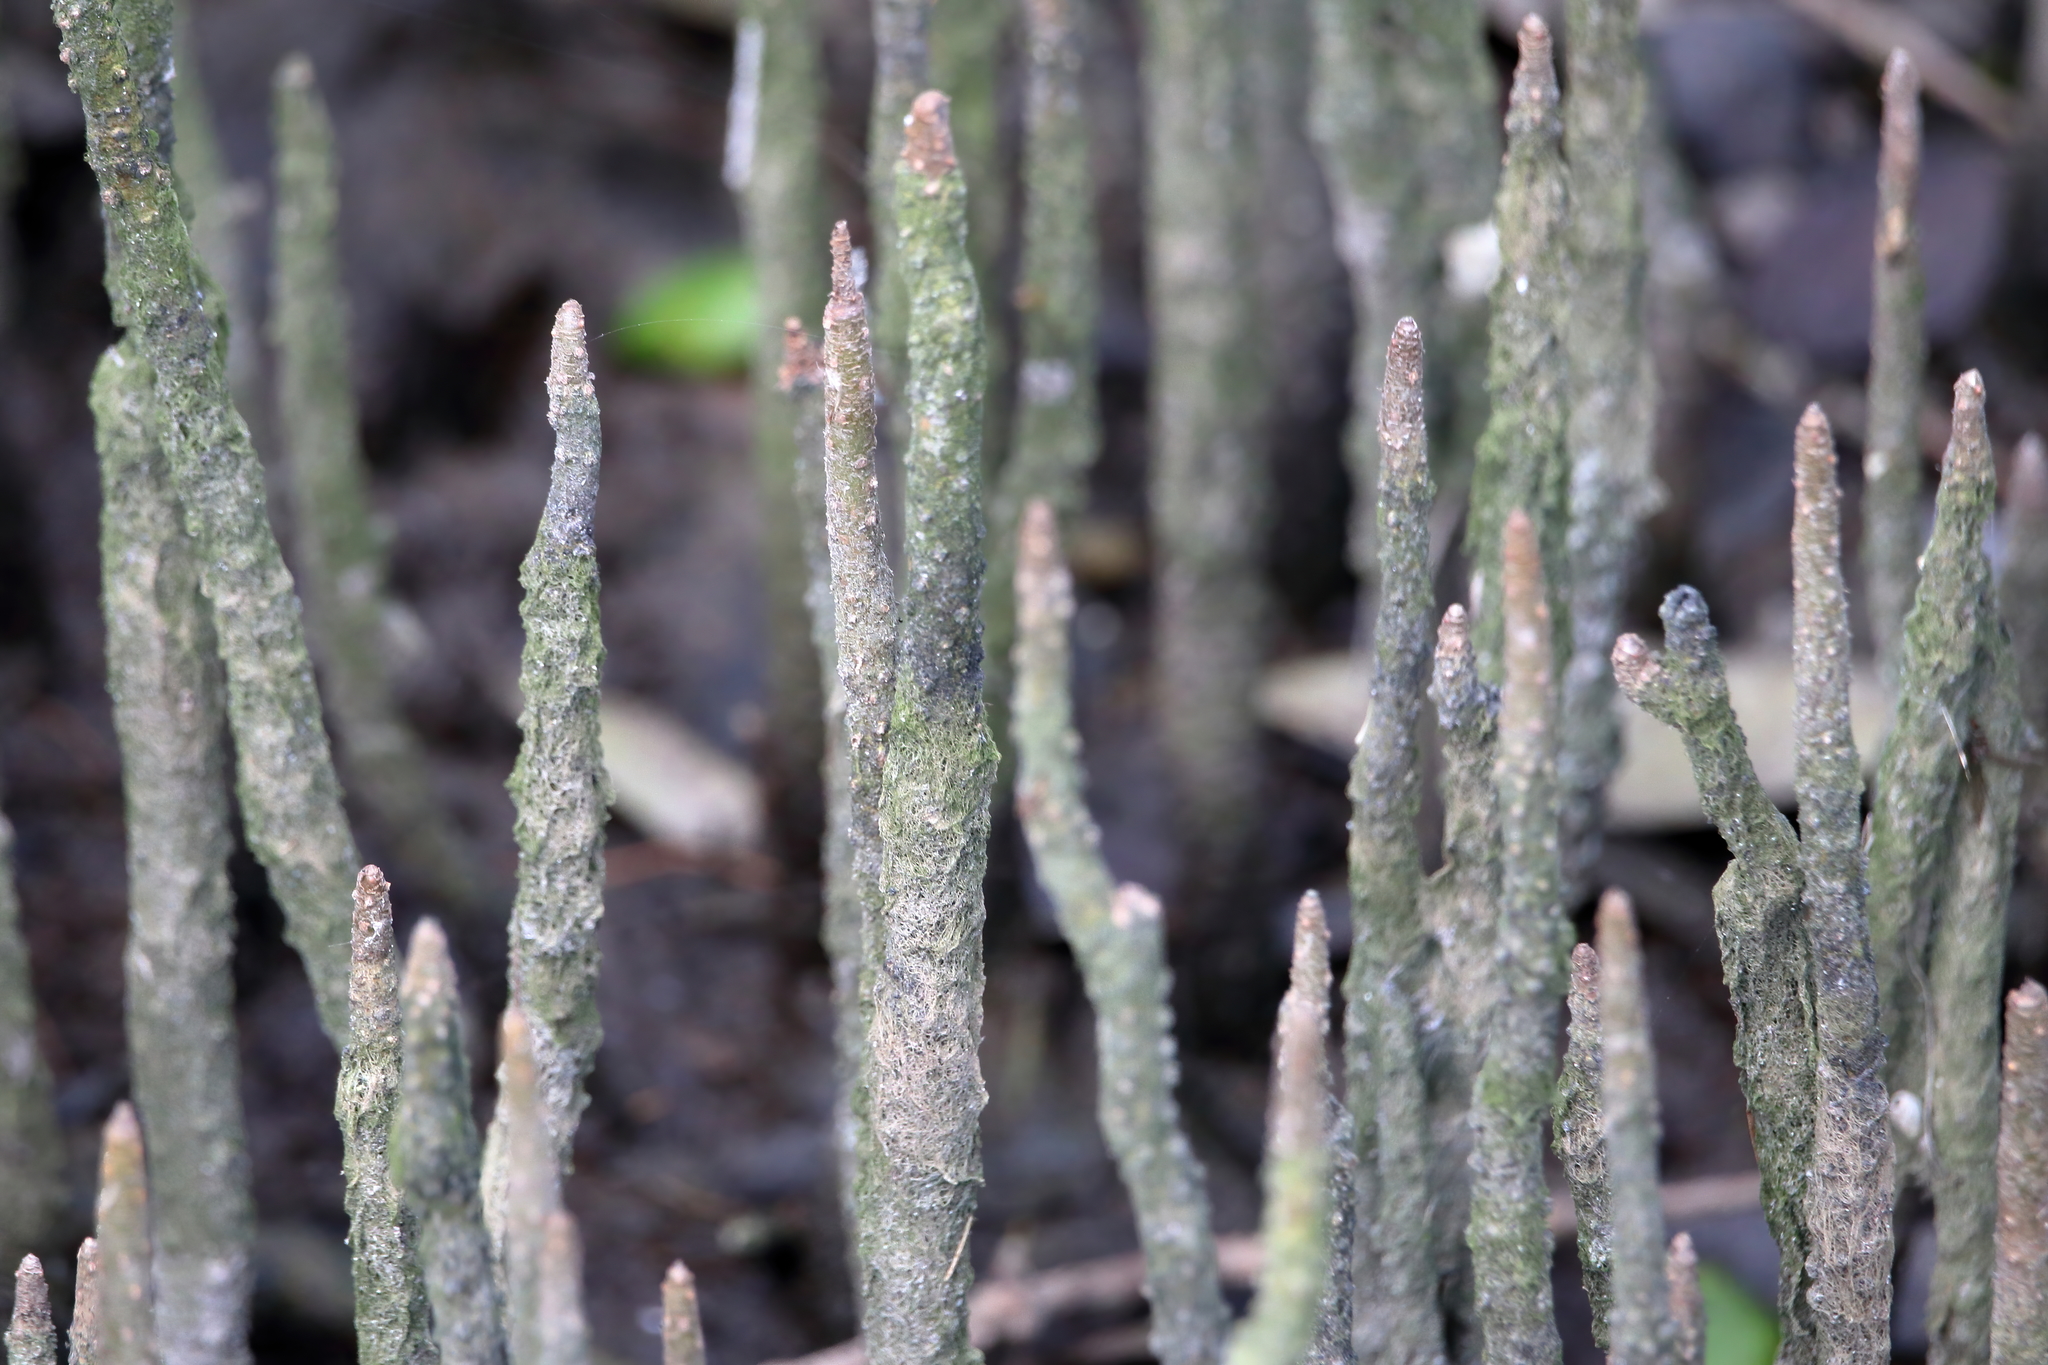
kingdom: Plantae
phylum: Tracheophyta
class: Magnoliopsida
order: Lamiales
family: Acanthaceae
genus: Avicennia
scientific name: Avicennia germinans
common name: Black mangrove
